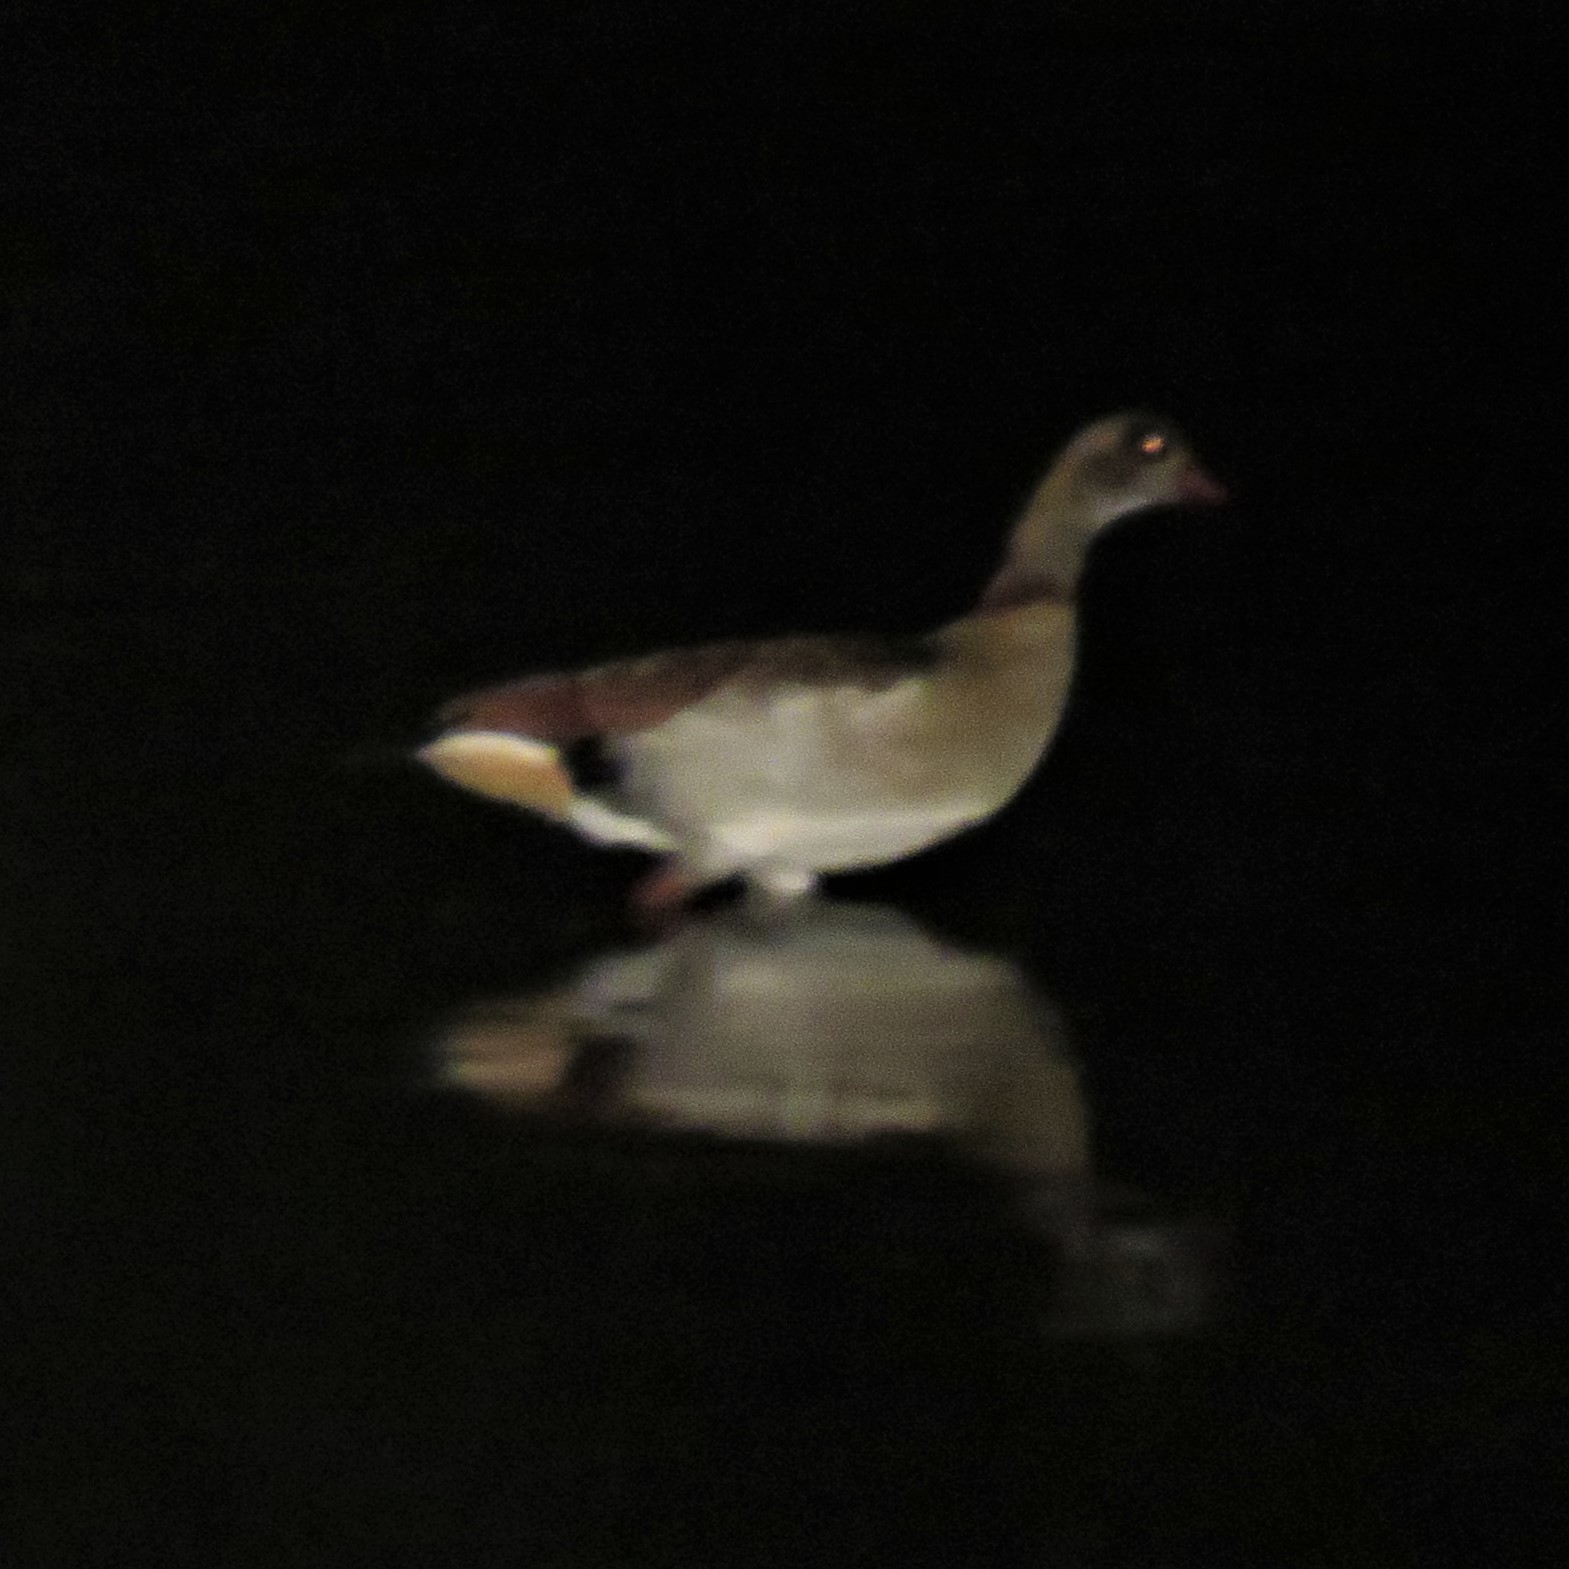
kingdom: Animalia
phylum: Chordata
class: Aves
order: Anseriformes
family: Anatidae
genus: Alopochen
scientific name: Alopochen aegyptiaca
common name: Egyptian goose
